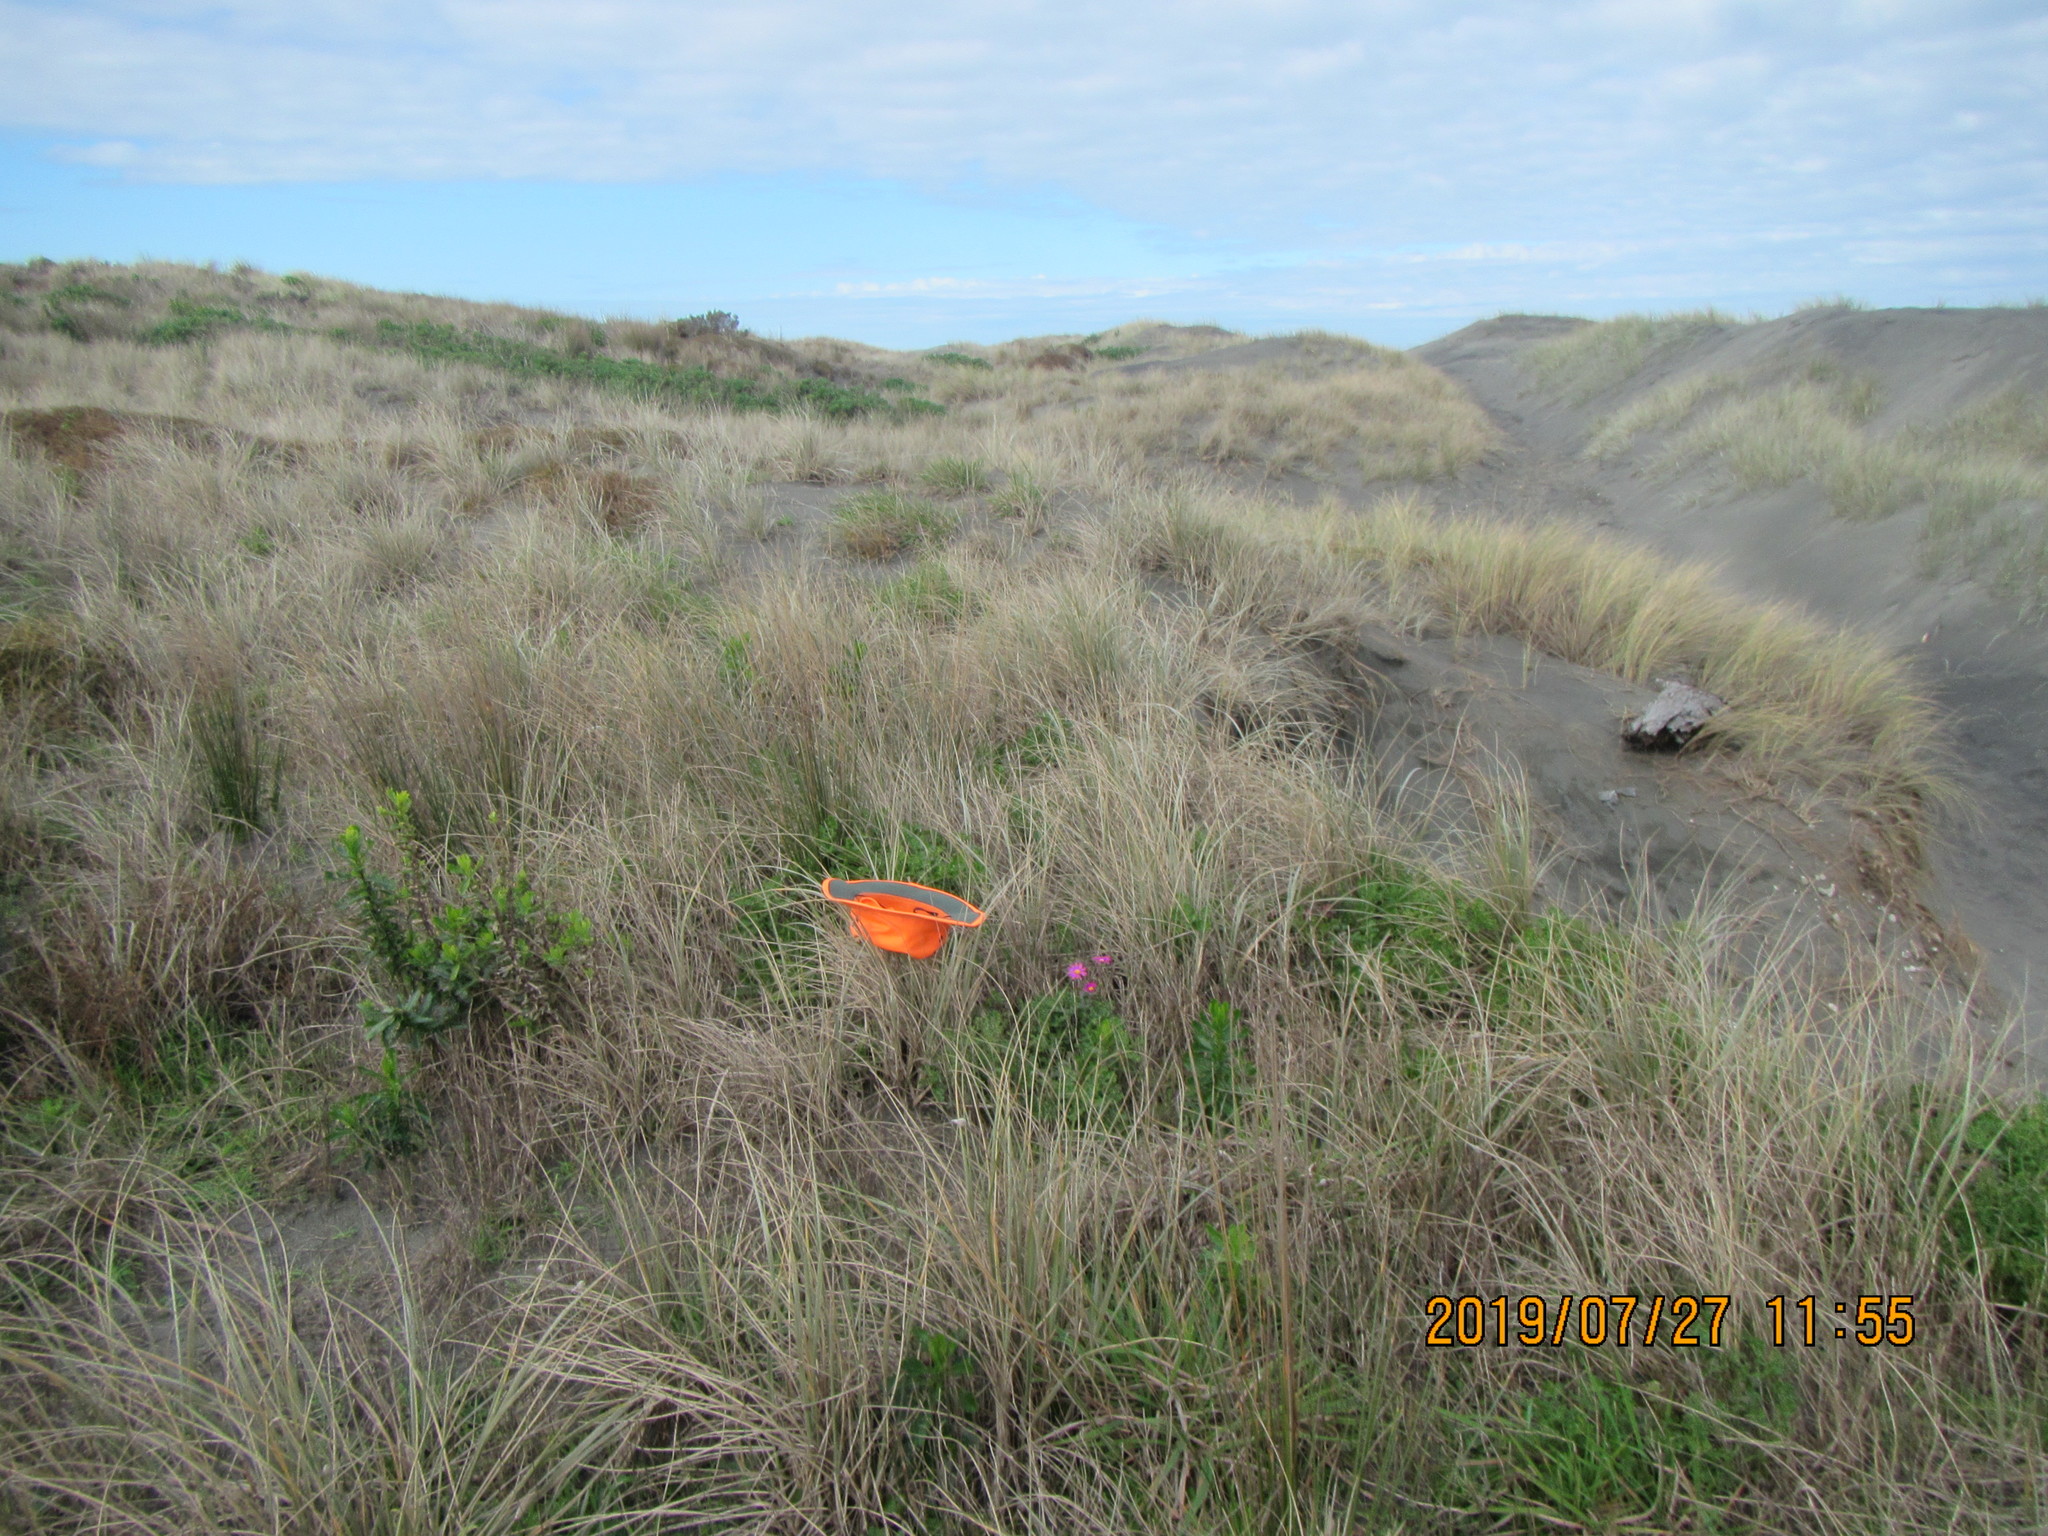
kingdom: Plantae
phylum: Tracheophyta
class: Magnoliopsida
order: Asterales
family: Asteraceae
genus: Senecio
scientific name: Senecio elegans
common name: Purple groundsel
